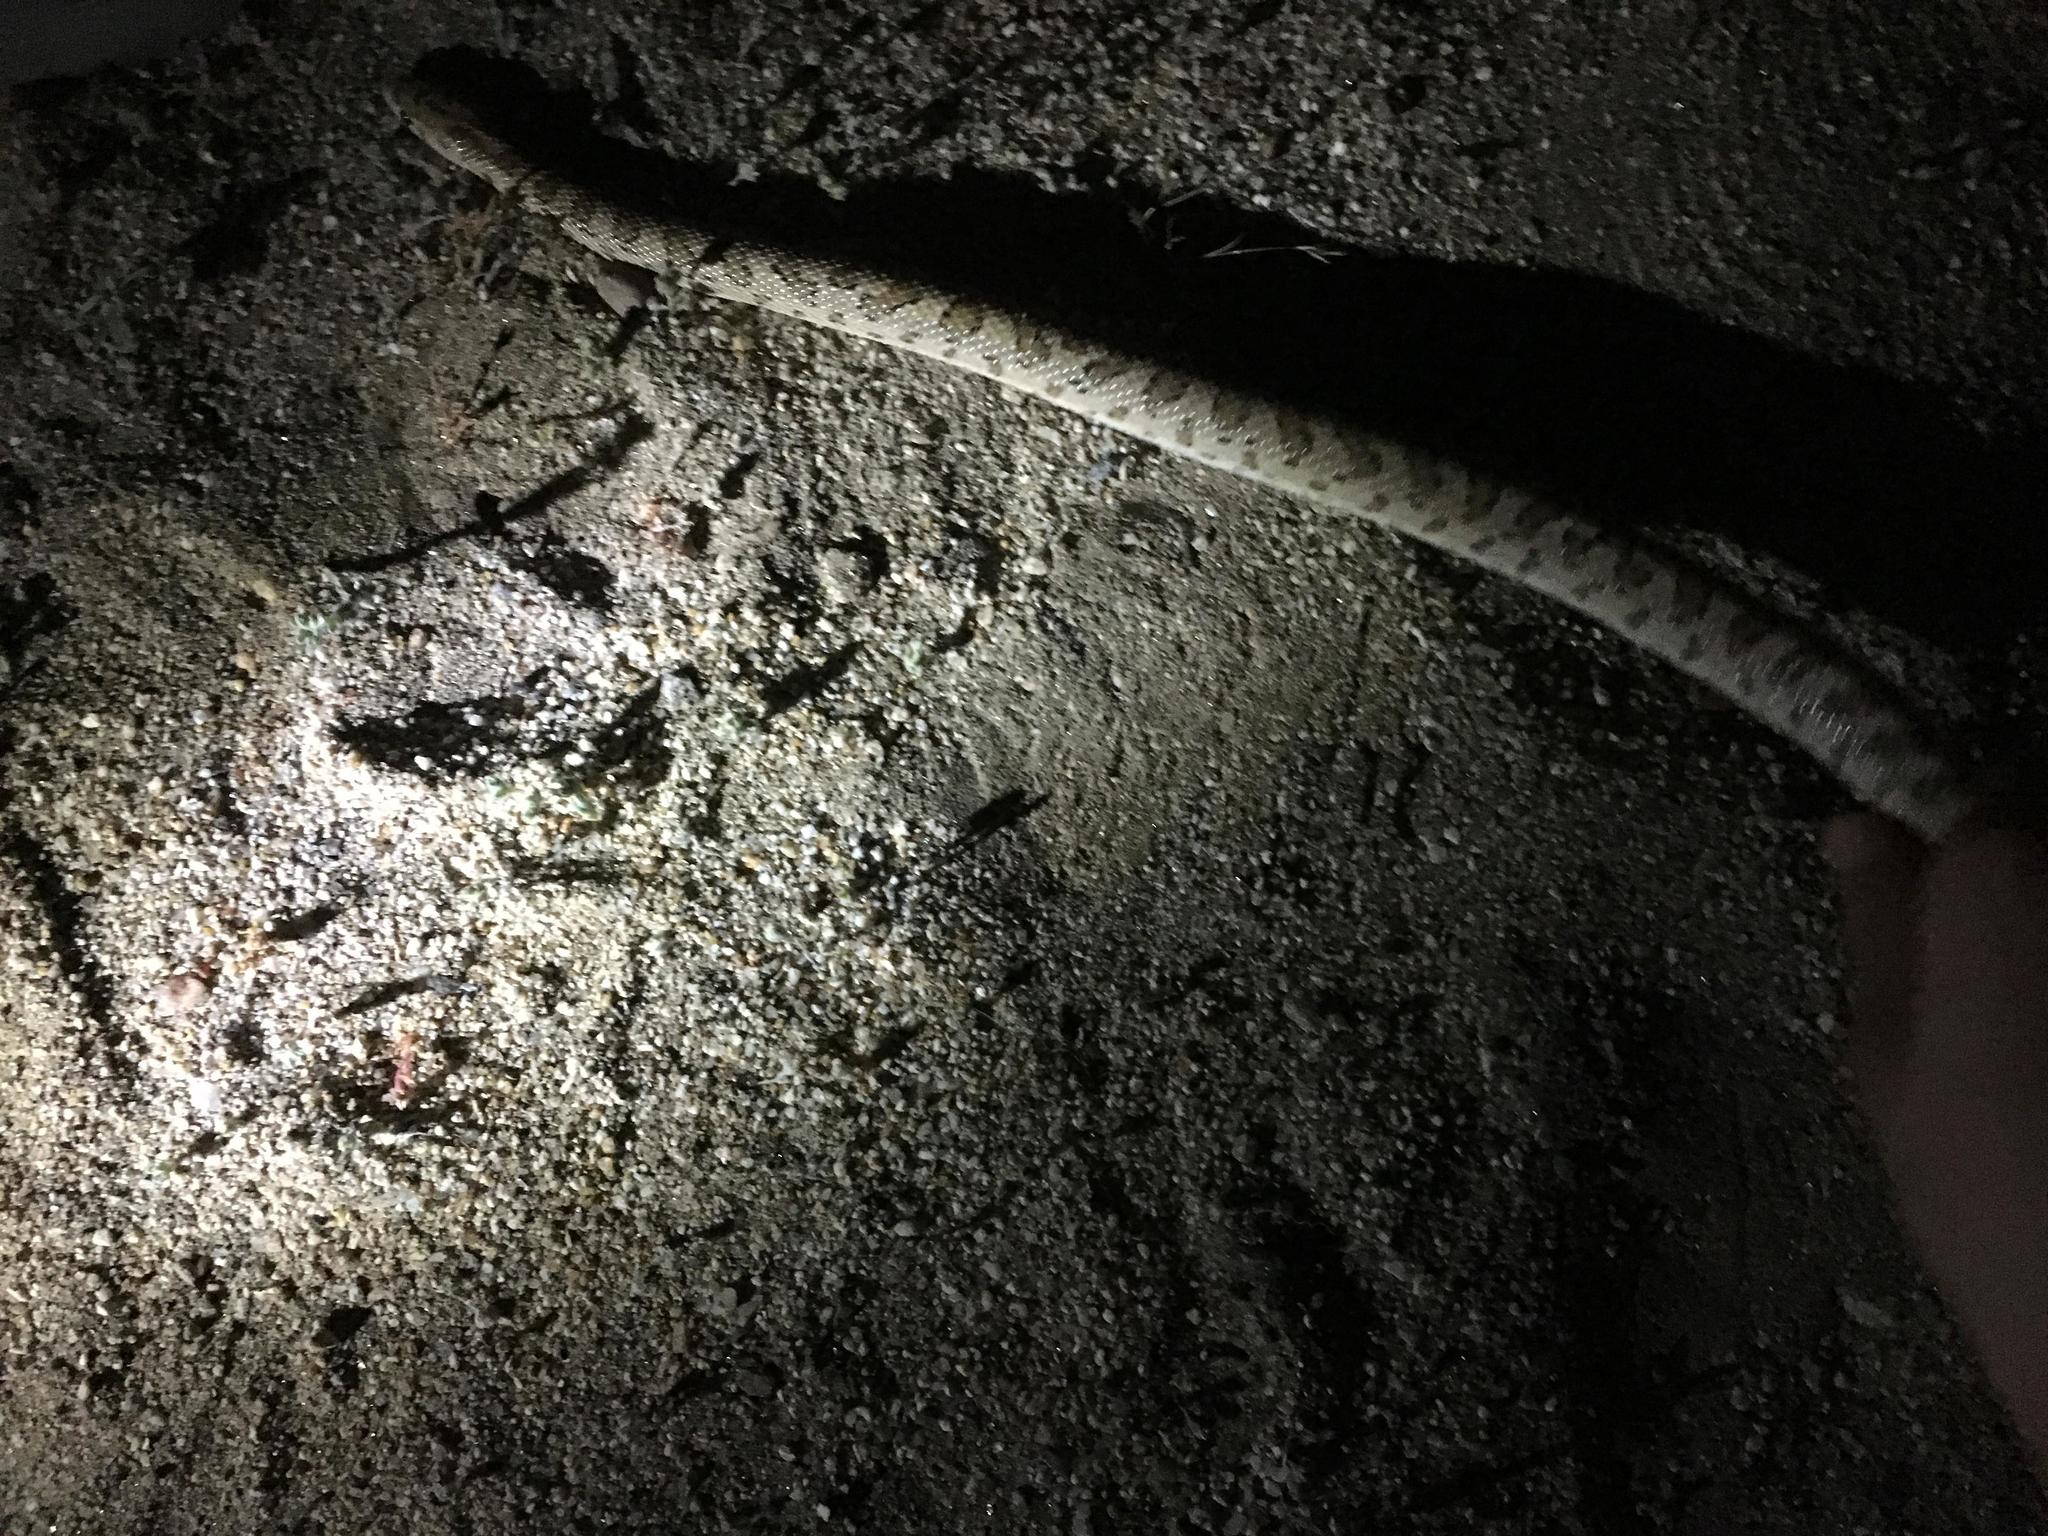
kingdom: Animalia
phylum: Chordata
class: Squamata
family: Colubridae
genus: Arizona
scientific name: Arizona elegans
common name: Glossy snake
